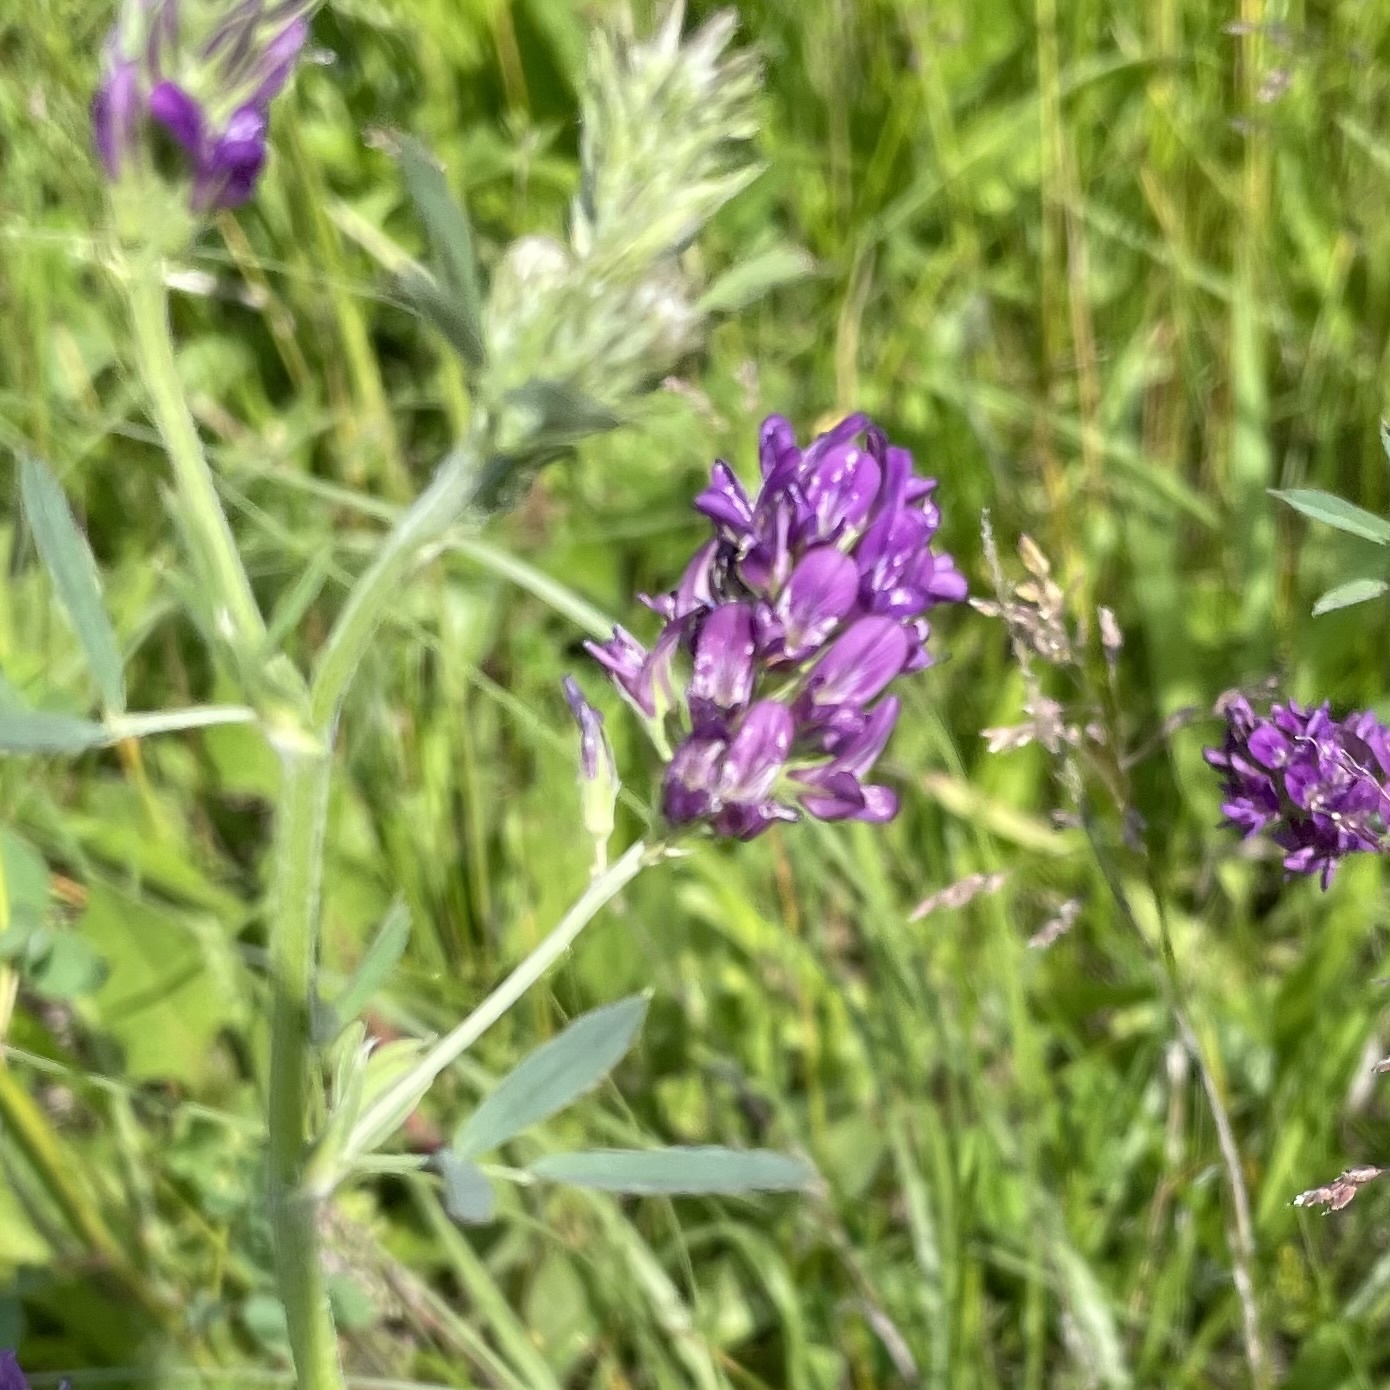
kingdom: Plantae
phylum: Tracheophyta
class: Magnoliopsida
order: Fabales
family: Fabaceae
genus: Medicago
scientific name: Medicago sativa
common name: Alfalfa
